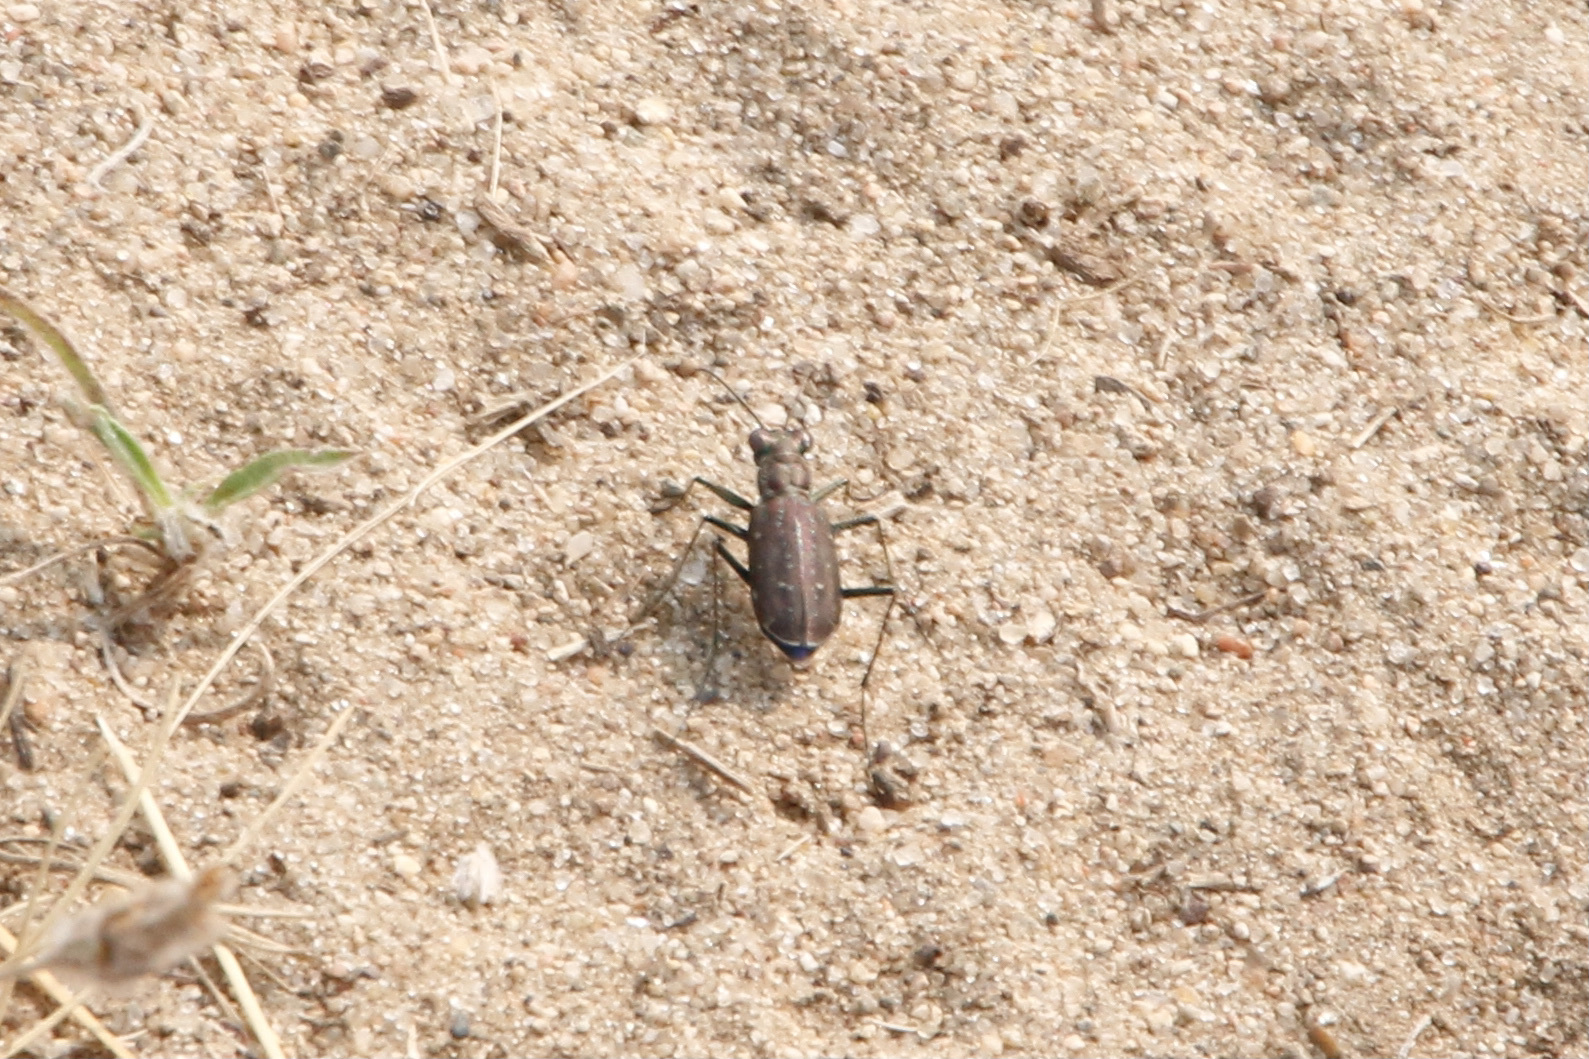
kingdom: Animalia
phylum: Arthropoda
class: Insecta
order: Coleoptera
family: Carabidae
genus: Cicindela
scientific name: Cicindela punctulata
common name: Punctured tiger beetle
